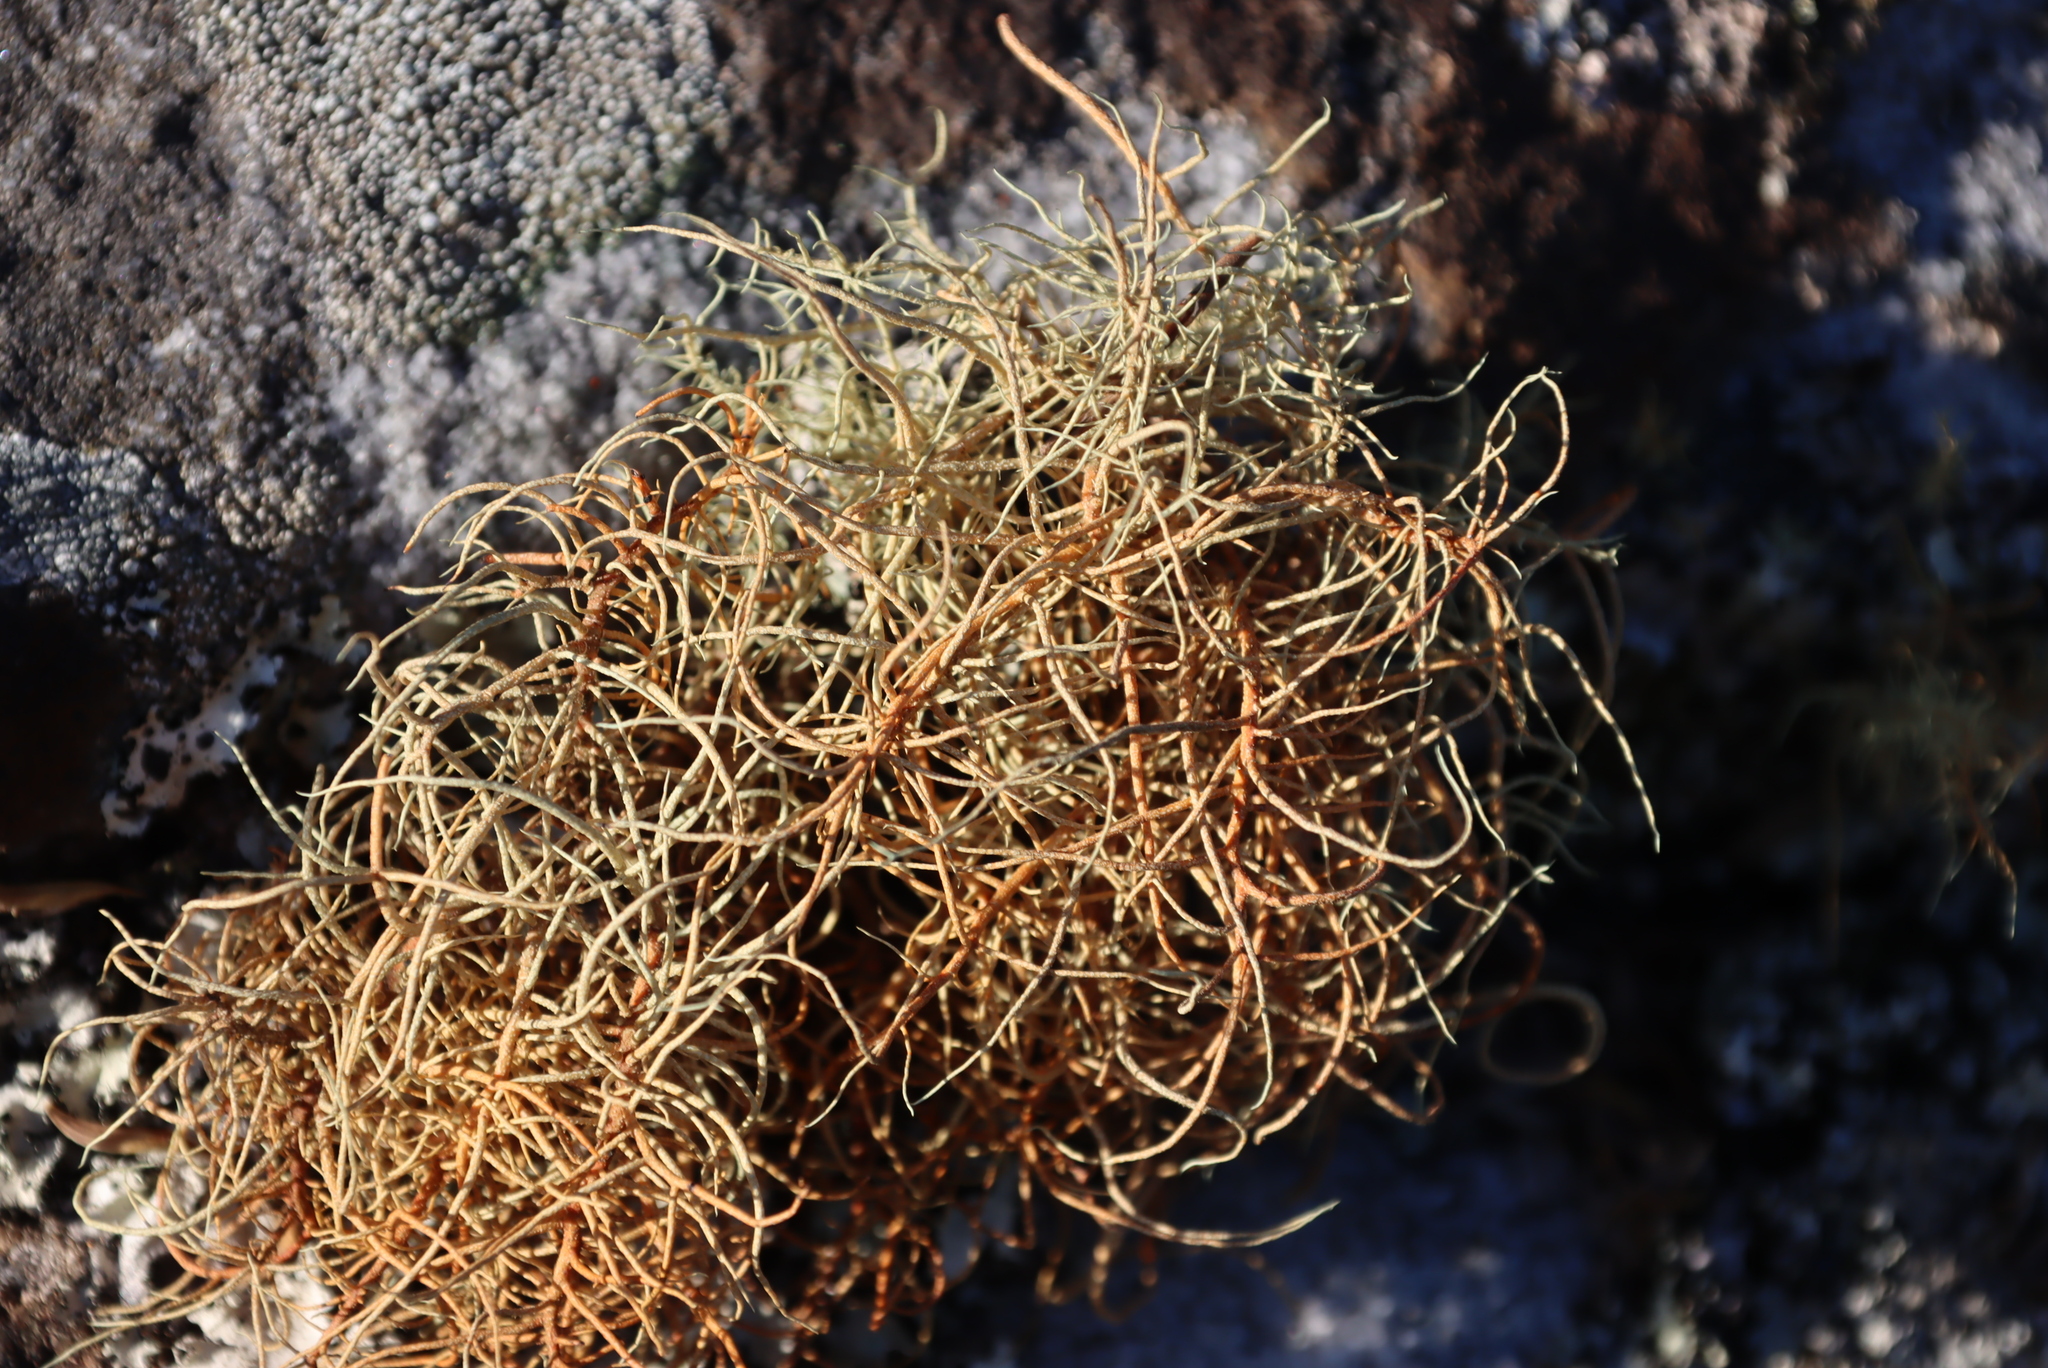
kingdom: Fungi
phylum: Ascomycota
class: Lecanoromycetes
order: Lecanorales
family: Parmeliaceae
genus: Usnea
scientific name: Usnea maculata
